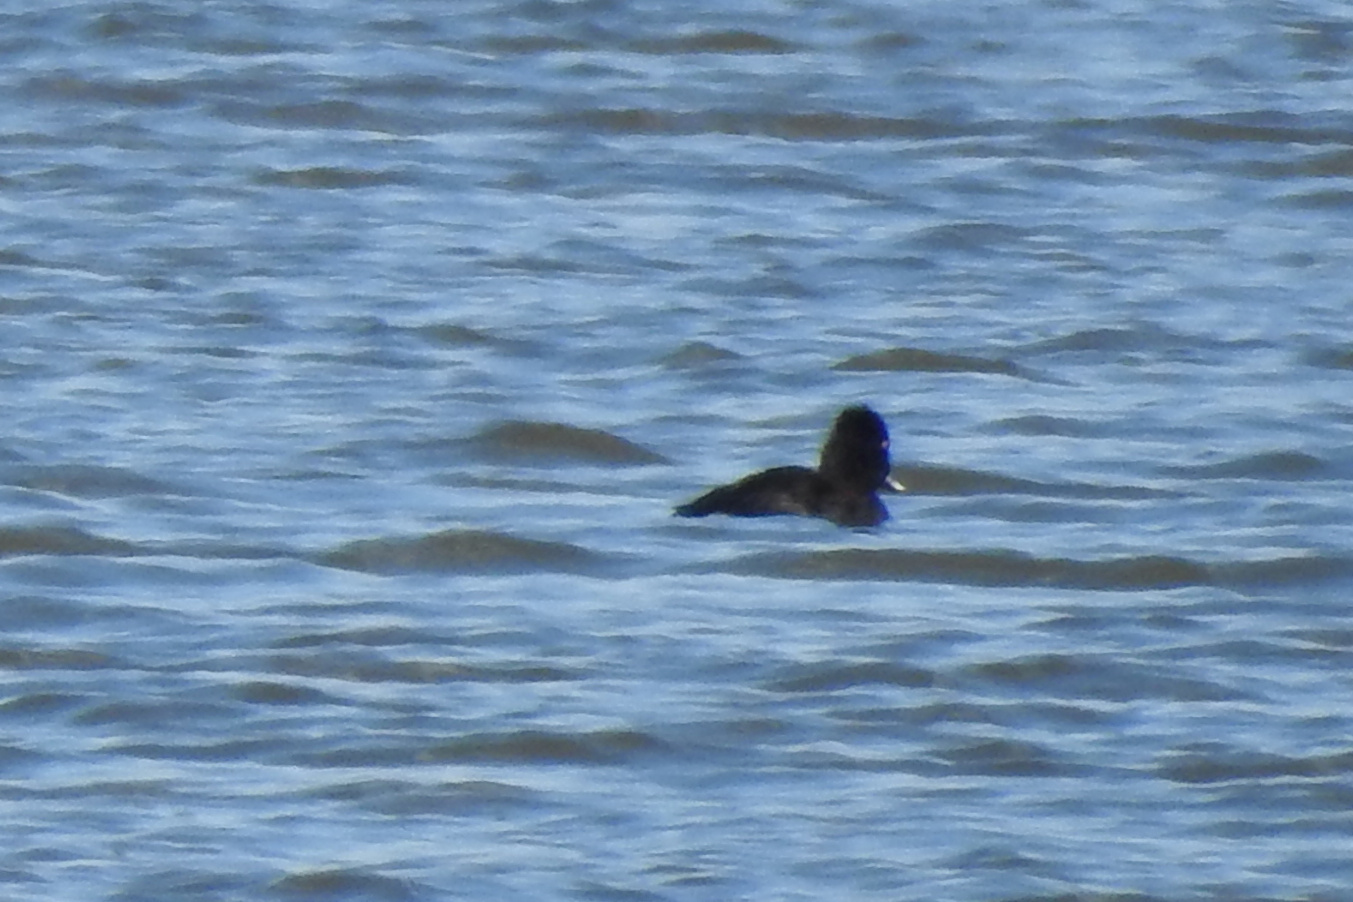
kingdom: Animalia
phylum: Chordata
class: Aves
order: Anseriformes
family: Anatidae
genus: Aythya
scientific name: Aythya collaris
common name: Ring-necked duck
